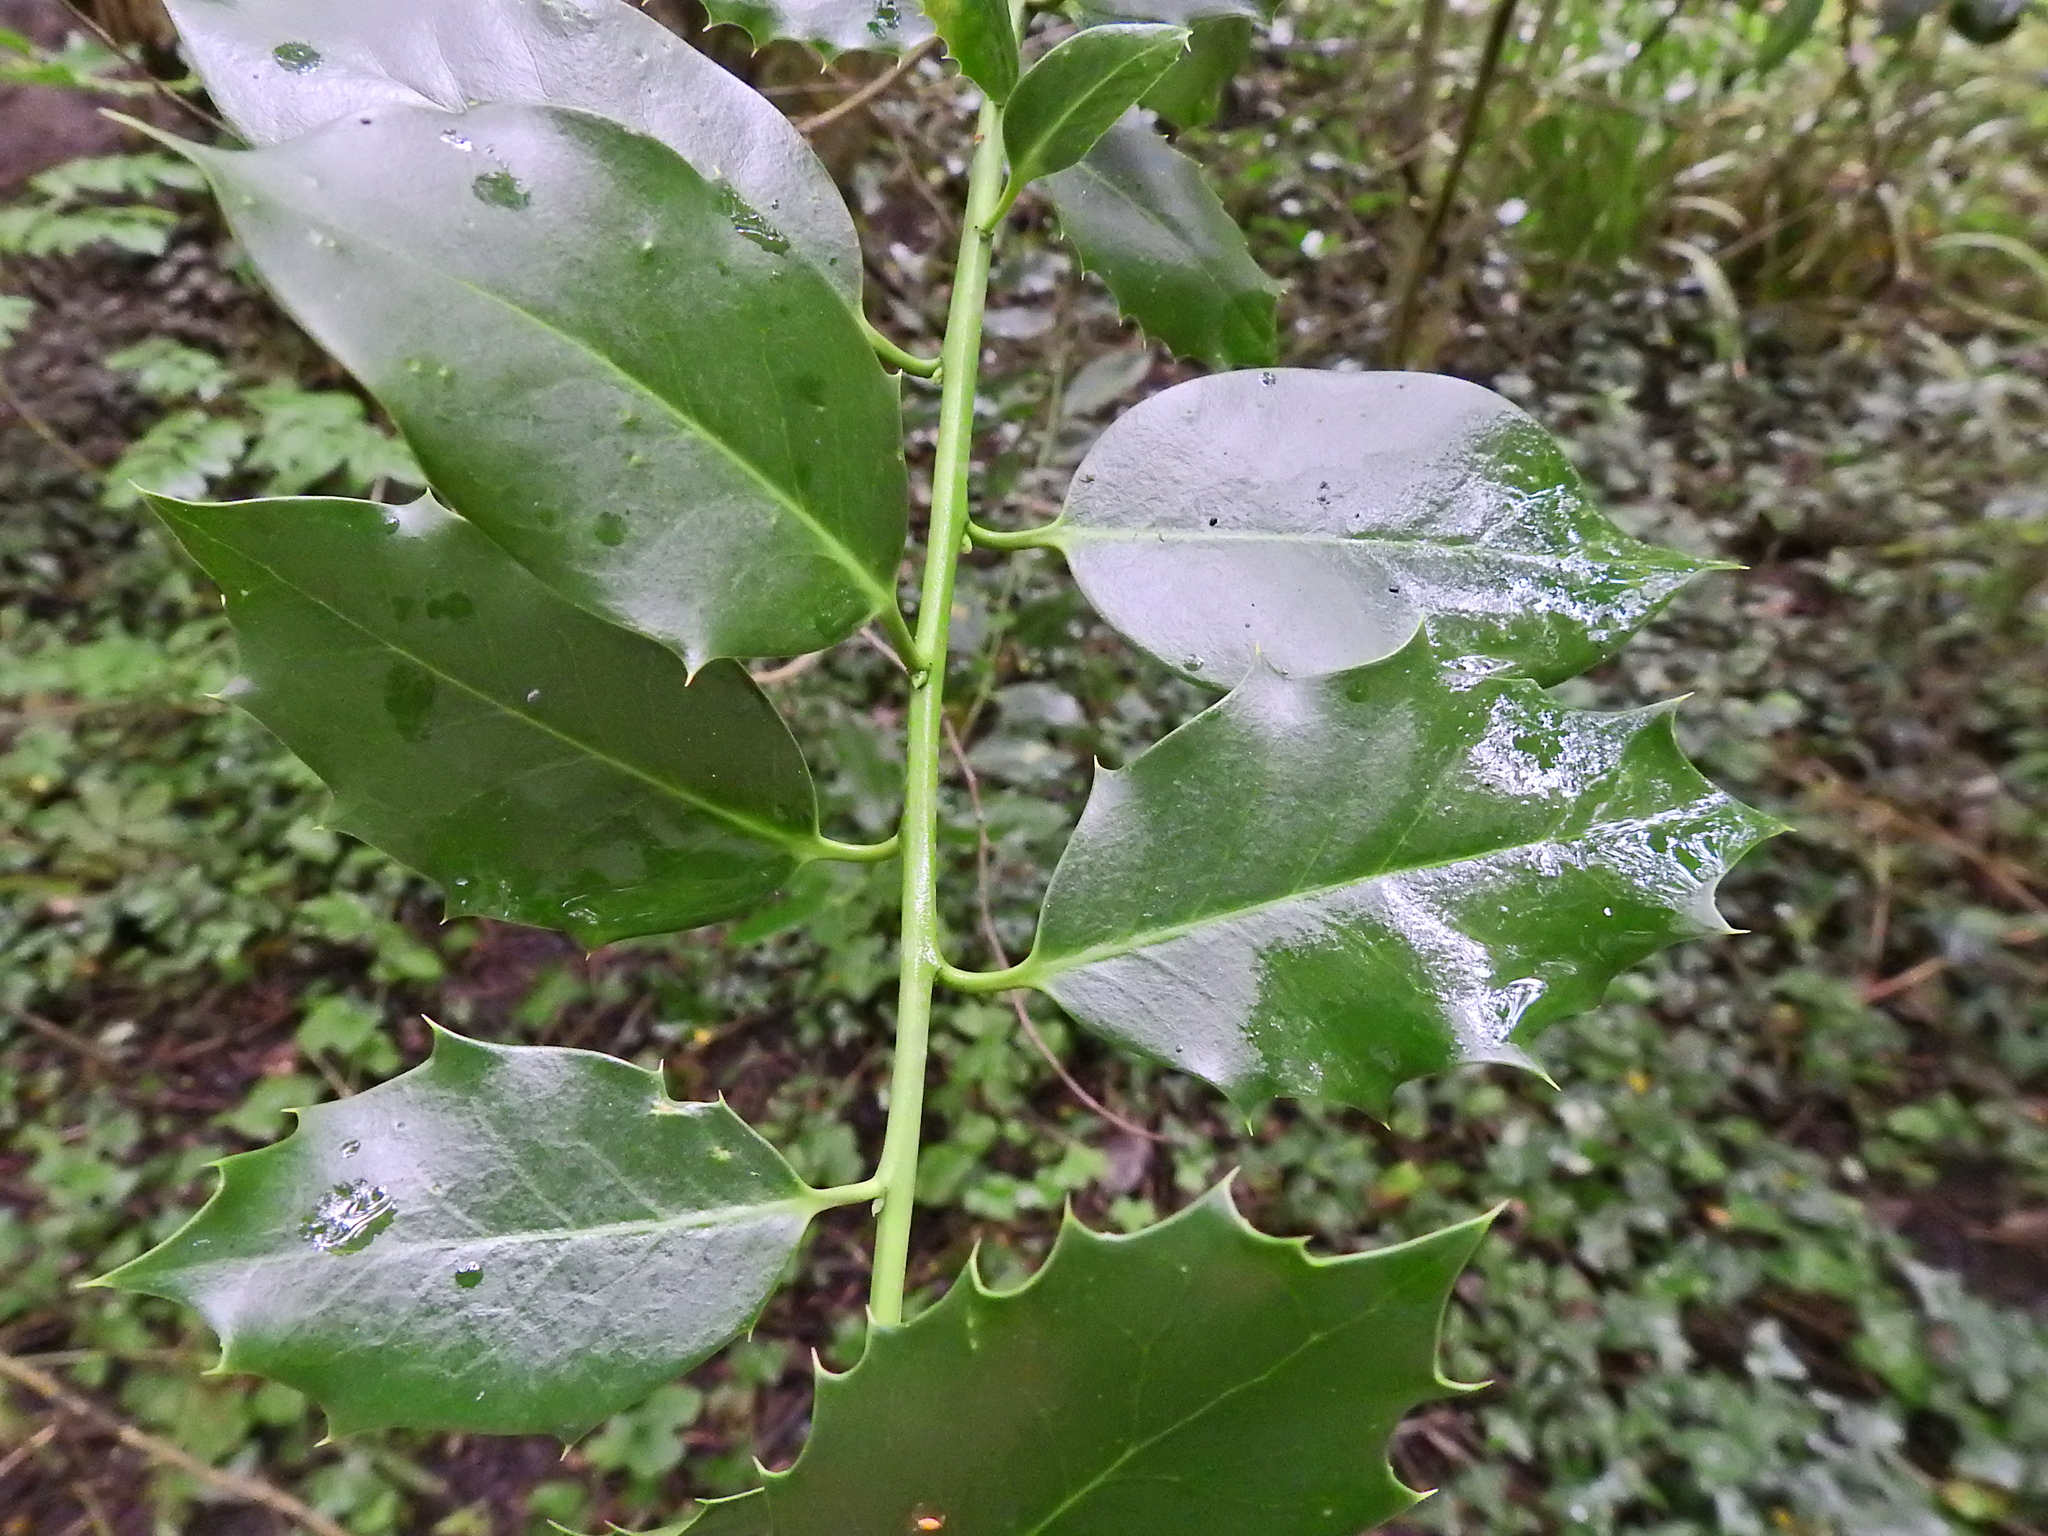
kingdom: Plantae
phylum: Tracheophyta
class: Magnoliopsida
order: Aquifoliales
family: Aquifoliaceae
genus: Ilex
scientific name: Ilex aquifolium
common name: English holly
